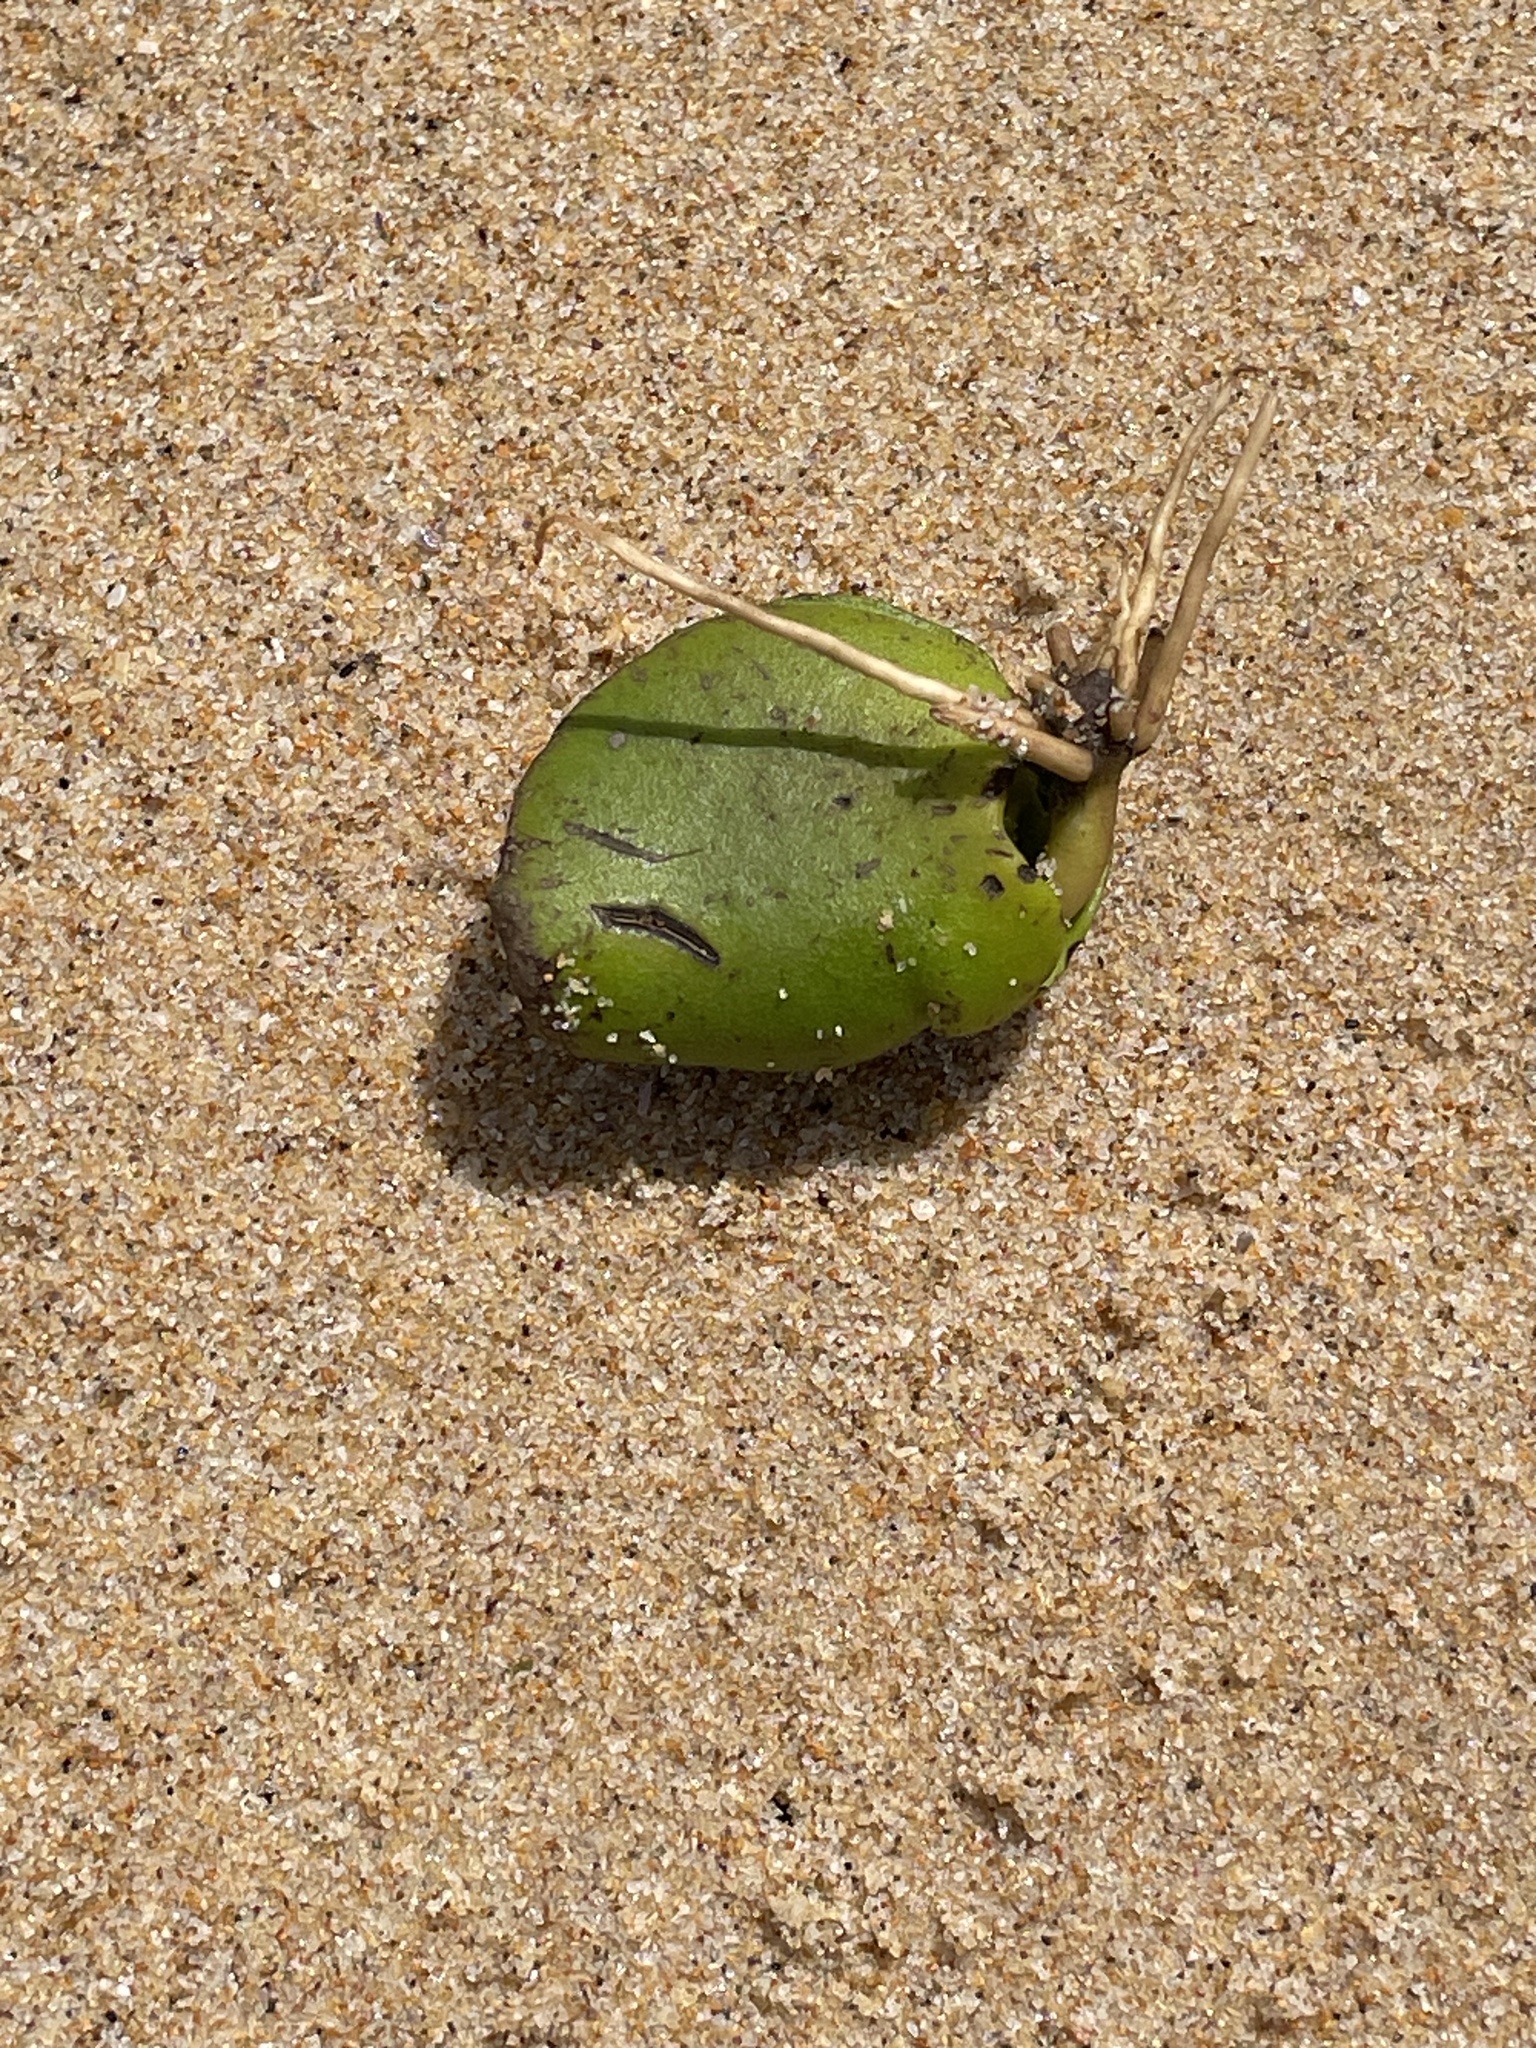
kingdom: Plantae
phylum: Tracheophyta
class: Magnoliopsida
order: Lamiales
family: Acanthaceae
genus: Avicennia
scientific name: Avicennia marina
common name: Gray mangrove
